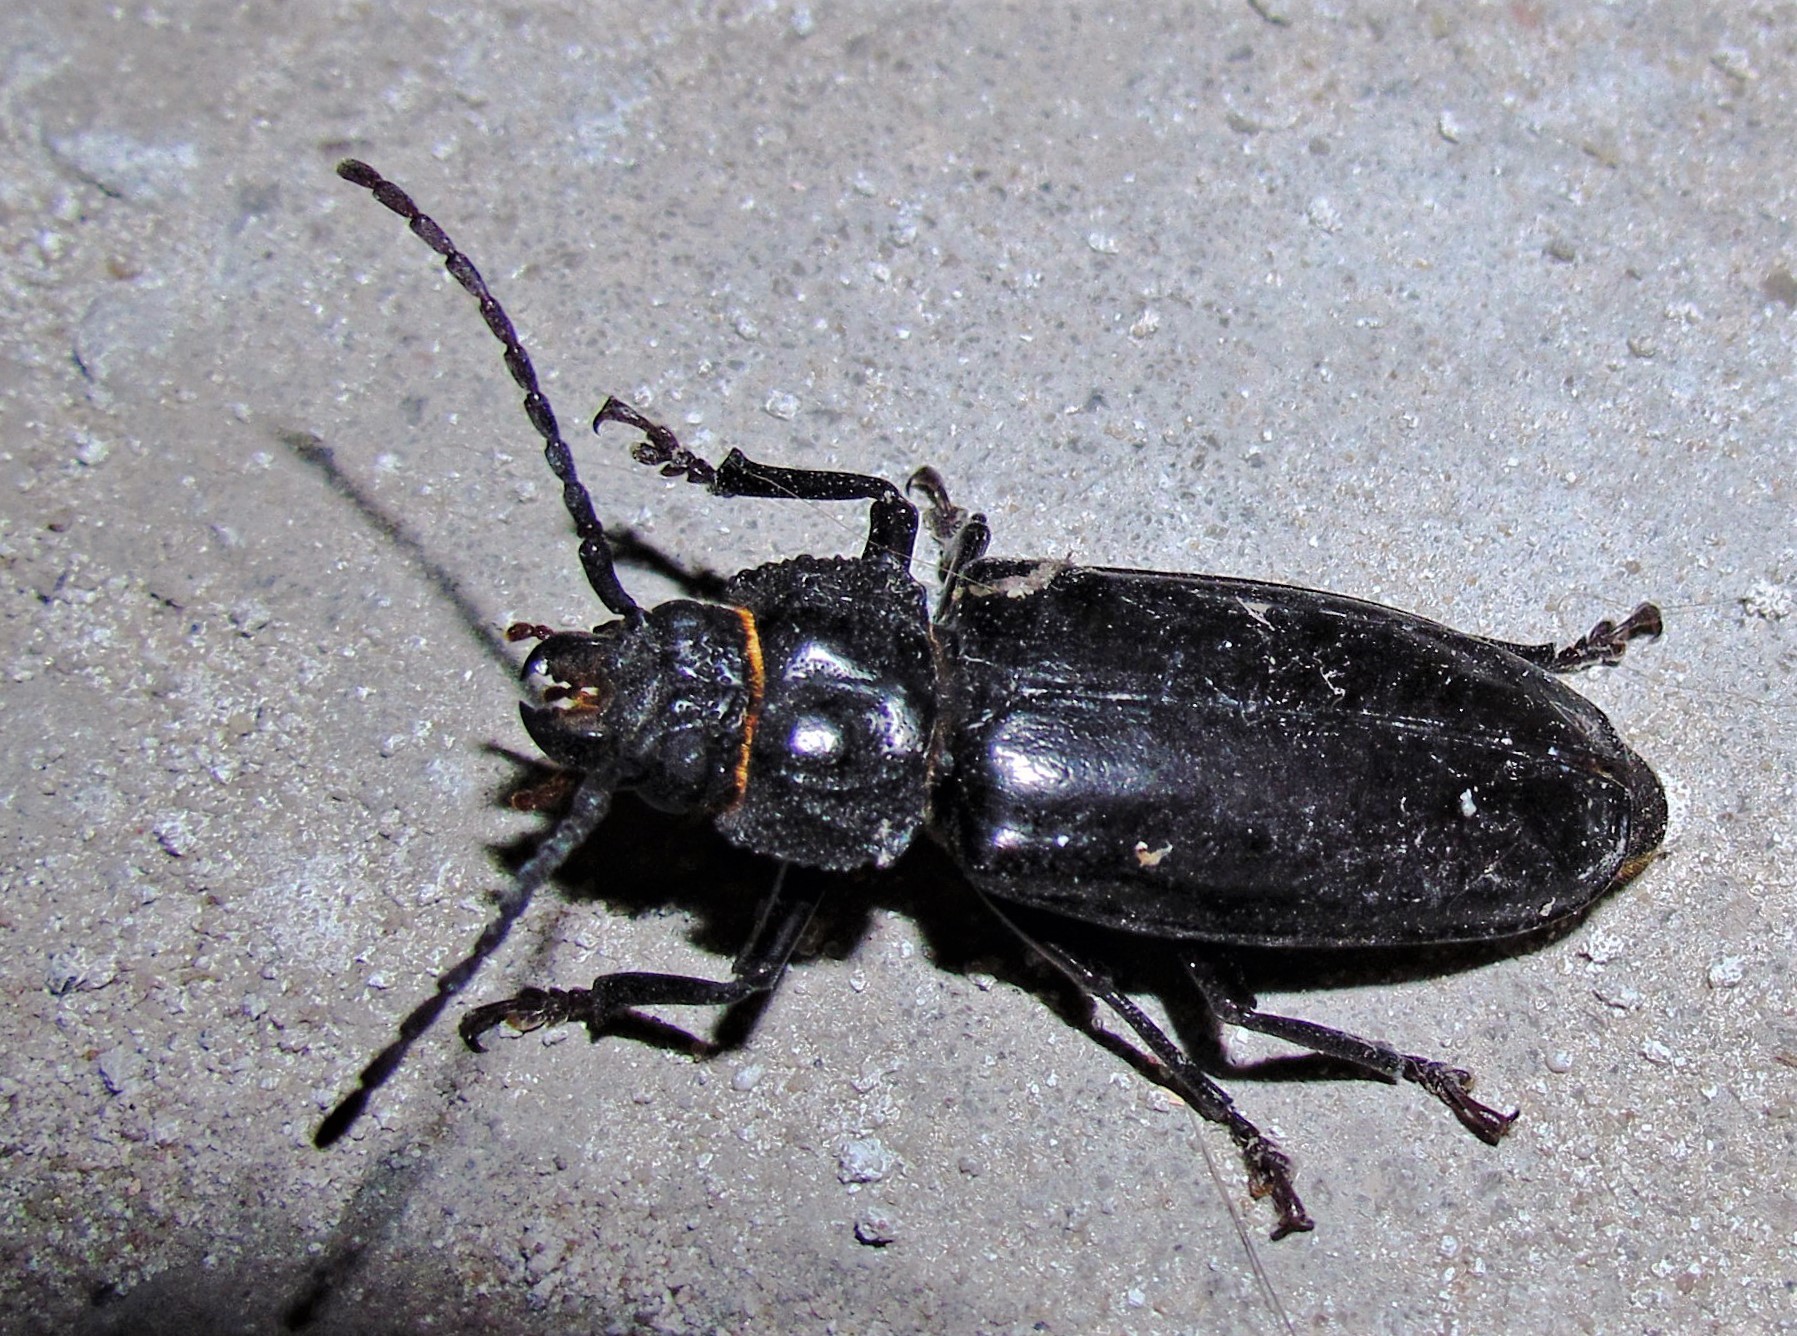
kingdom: Animalia
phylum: Arthropoda
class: Insecta
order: Coleoptera
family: Cerambycidae
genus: Mallodon
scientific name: Mallodon dasystomum
